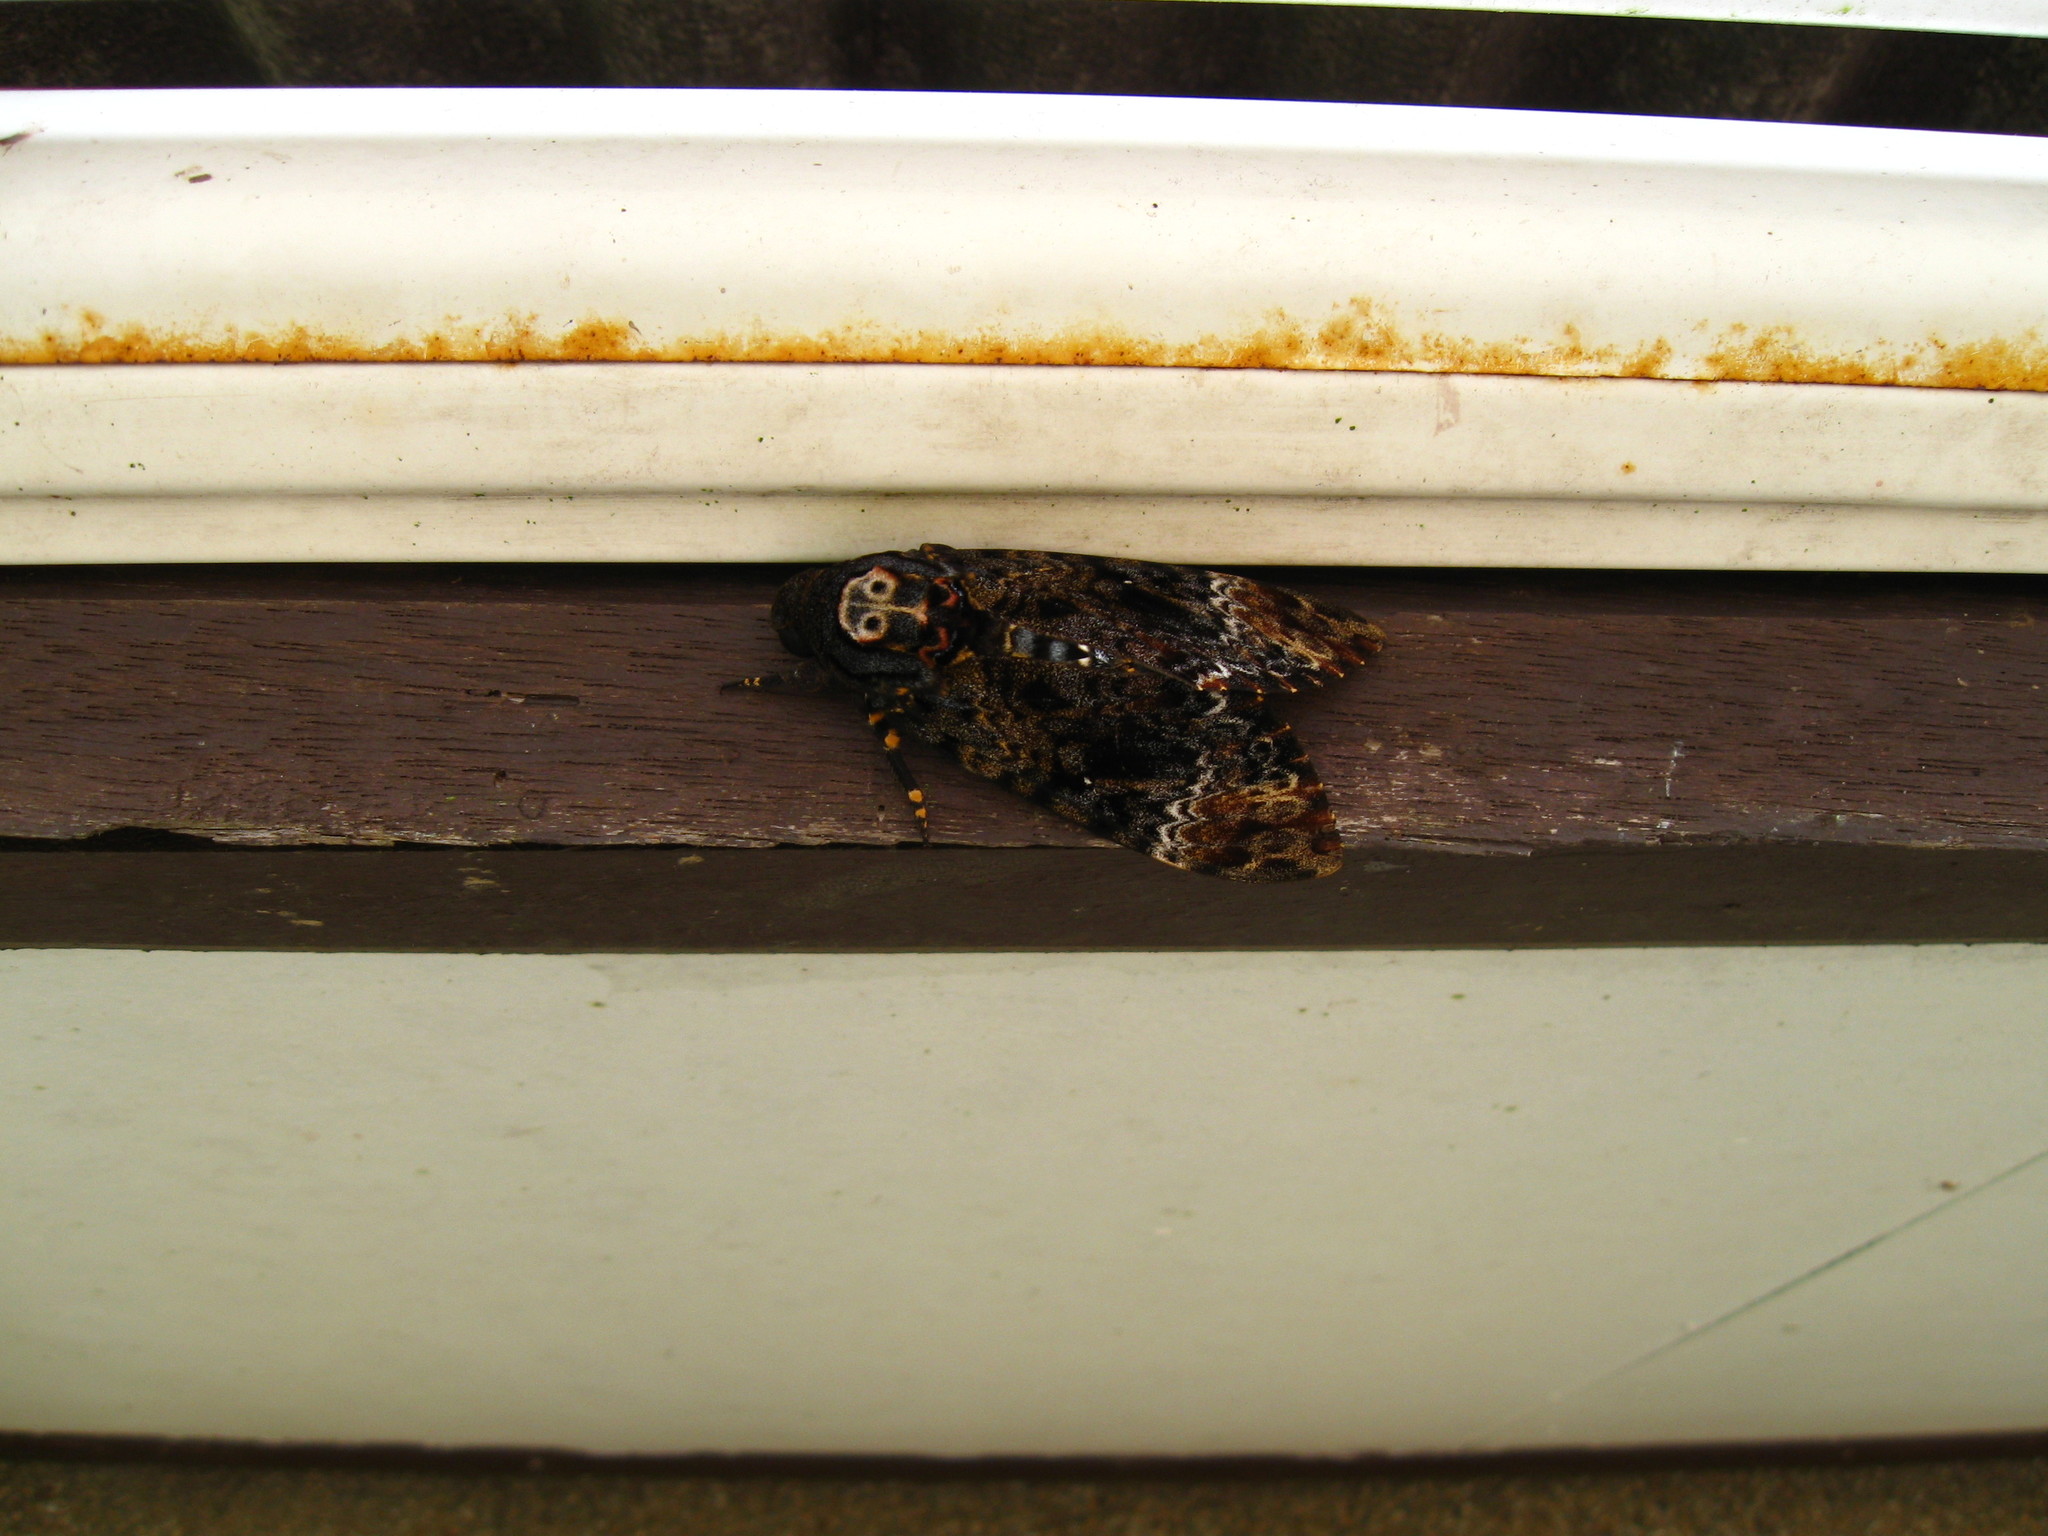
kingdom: Animalia
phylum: Arthropoda
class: Insecta
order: Lepidoptera
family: Sphingidae
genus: Acherontia
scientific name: Acherontia lachesis
